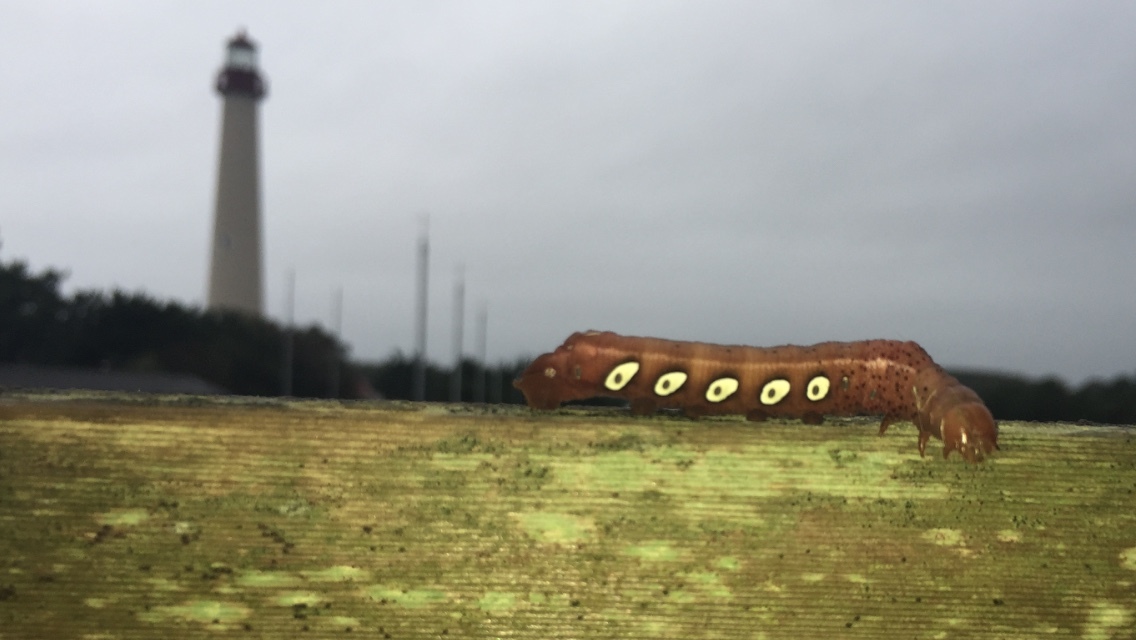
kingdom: Animalia
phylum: Arthropoda
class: Insecta
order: Lepidoptera
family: Sphingidae
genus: Eumorpha
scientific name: Eumorpha pandorus
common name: Pandora sphinx
